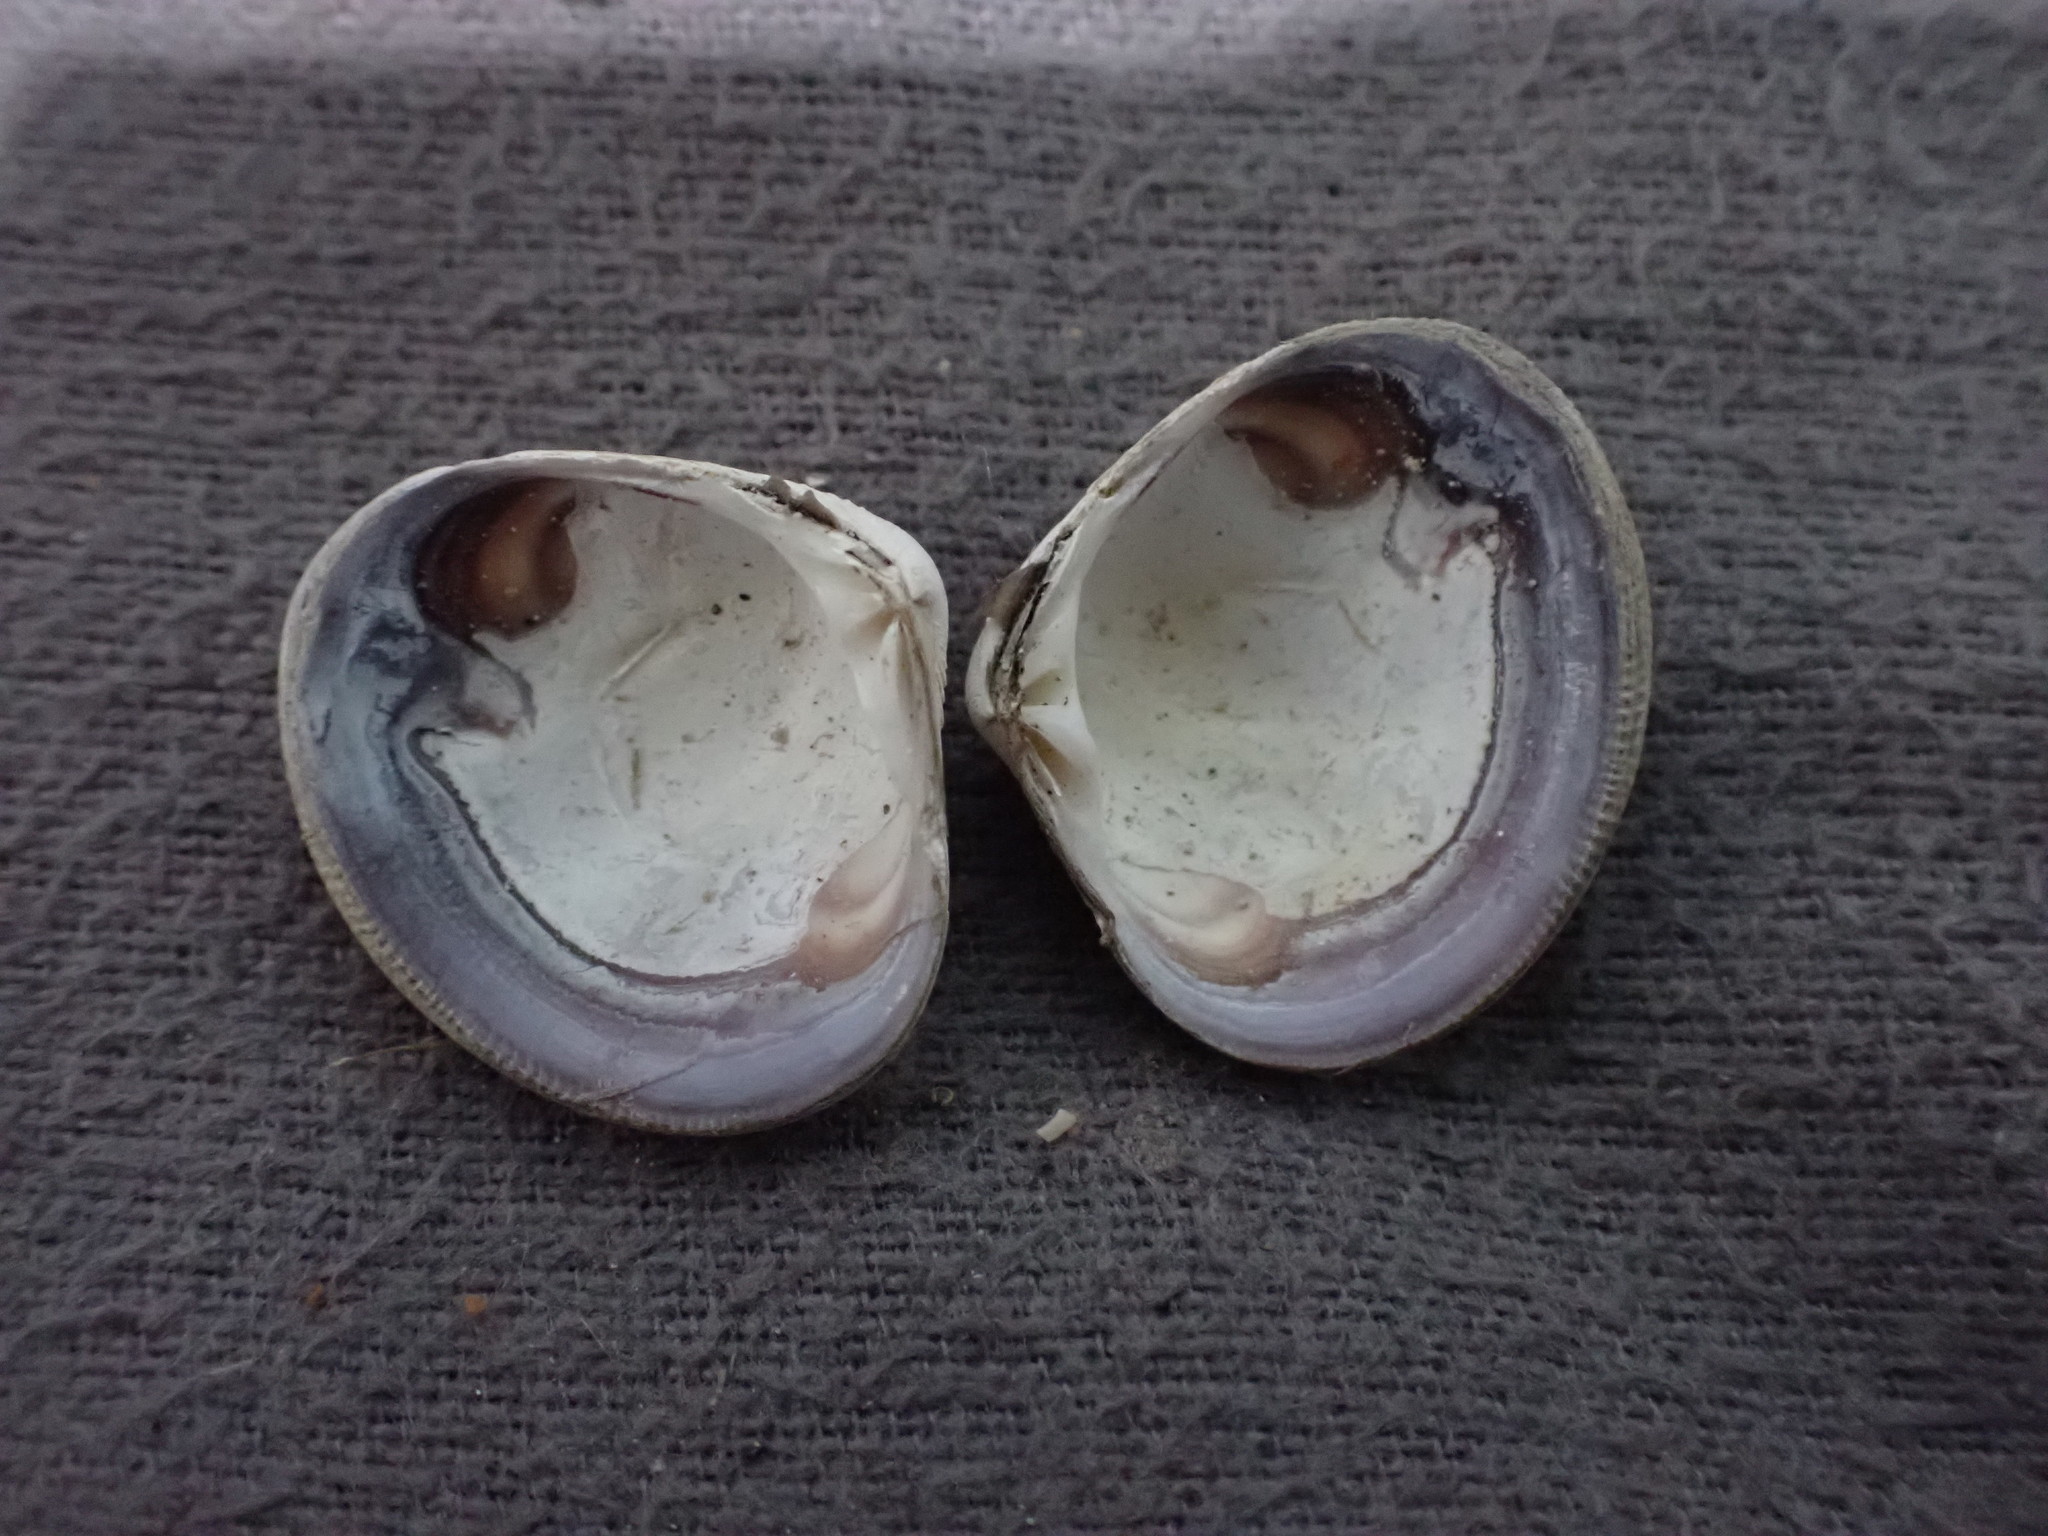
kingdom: Animalia
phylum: Mollusca
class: Bivalvia
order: Venerida
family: Veneridae
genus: Tawera
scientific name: Tawera marionae
